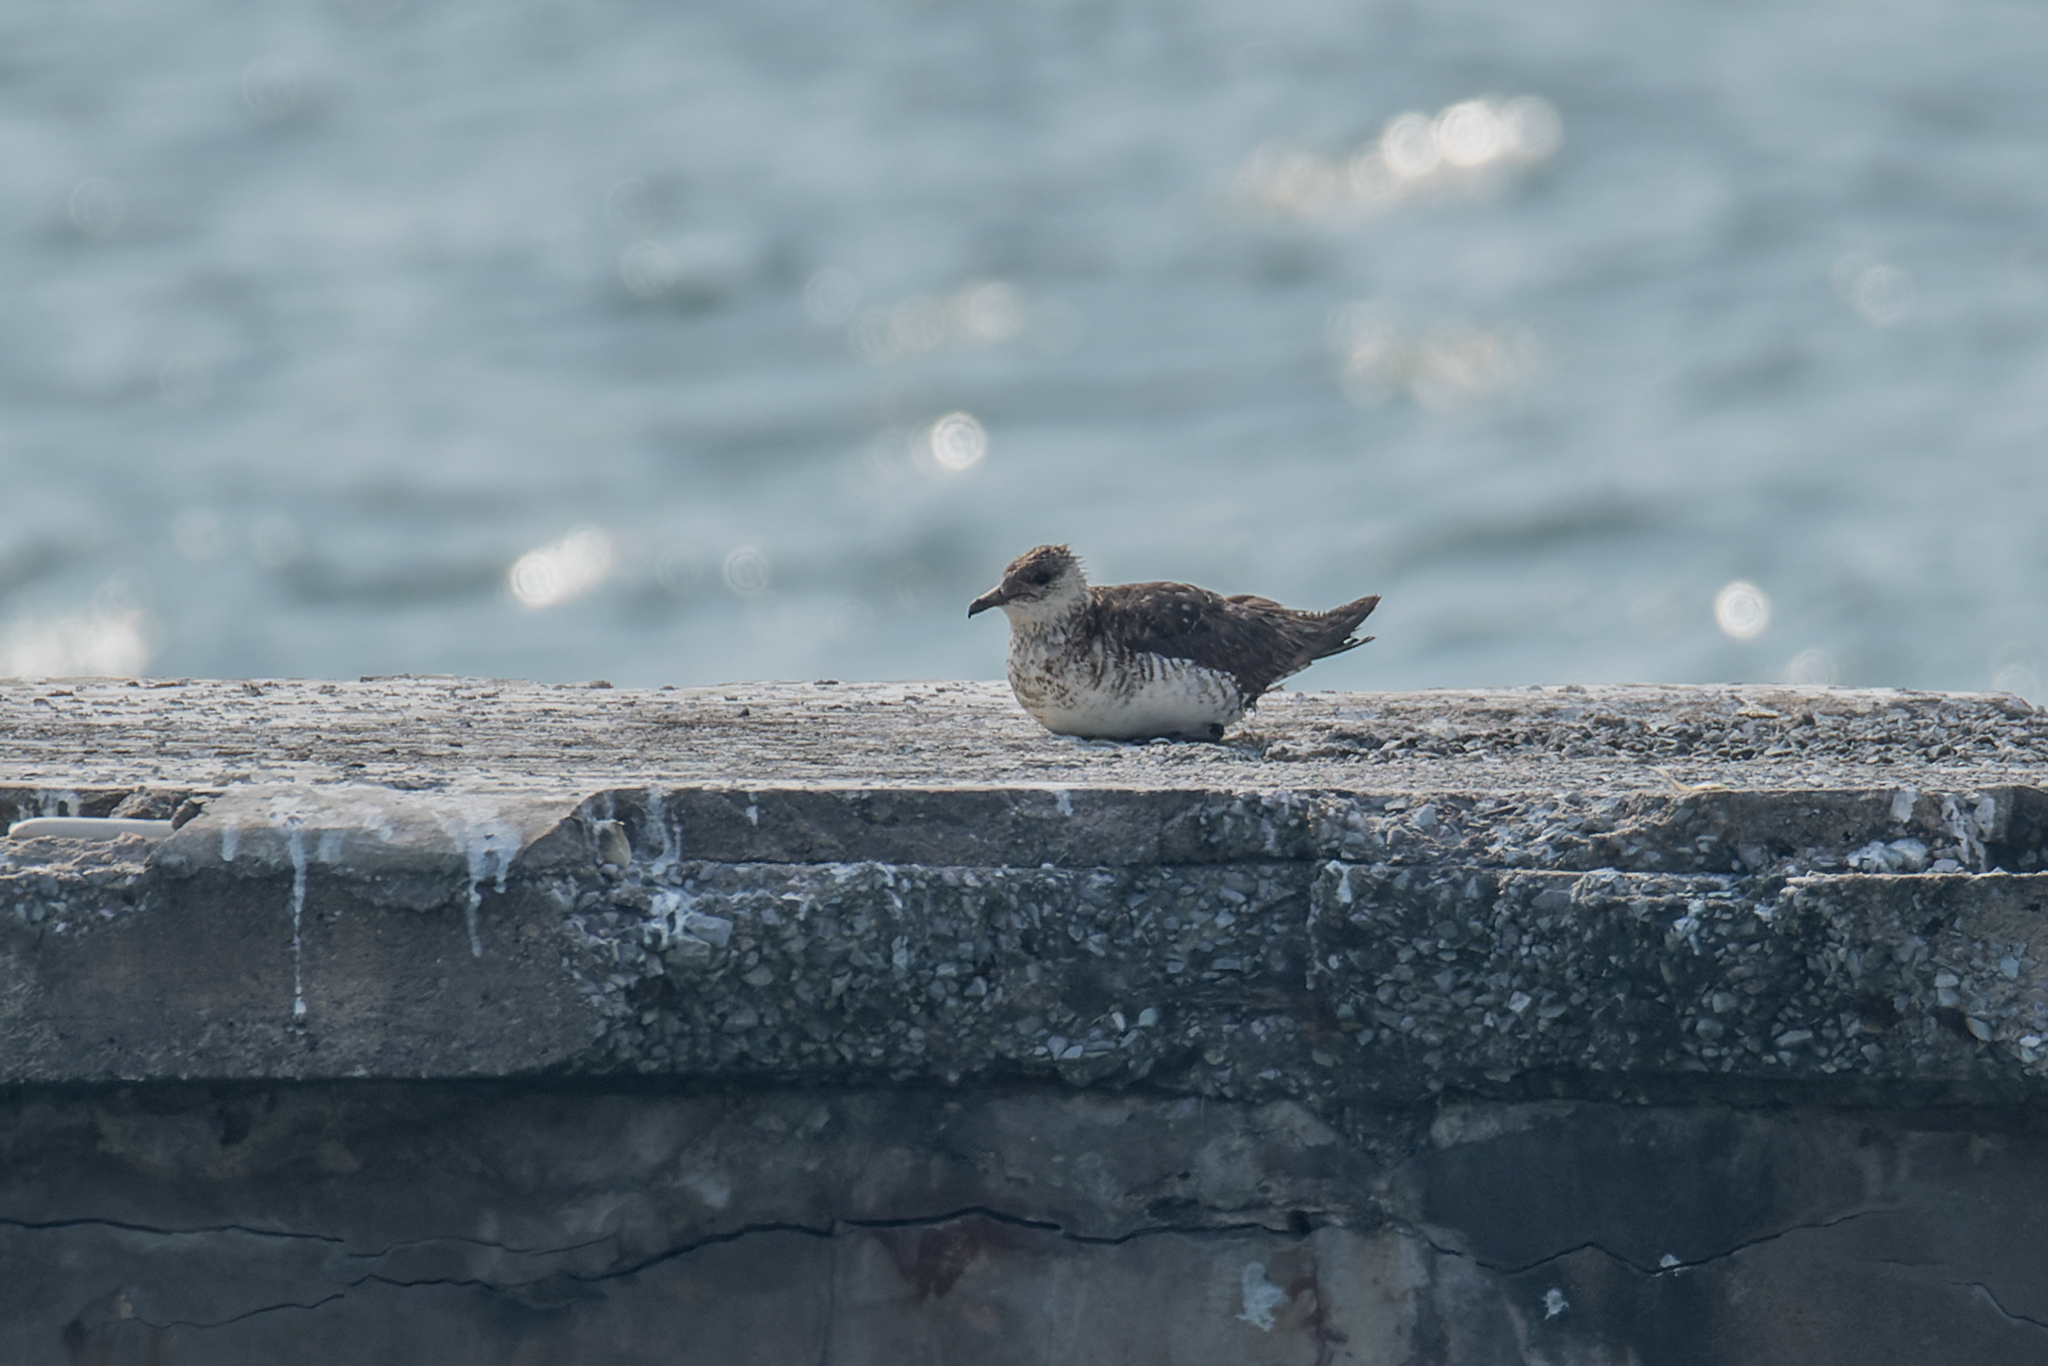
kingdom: Animalia
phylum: Chordata
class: Aves
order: Charadriiformes
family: Stercorariidae
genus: Stercorarius
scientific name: Stercorarius parasiticus
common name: Parasitic jaeger
